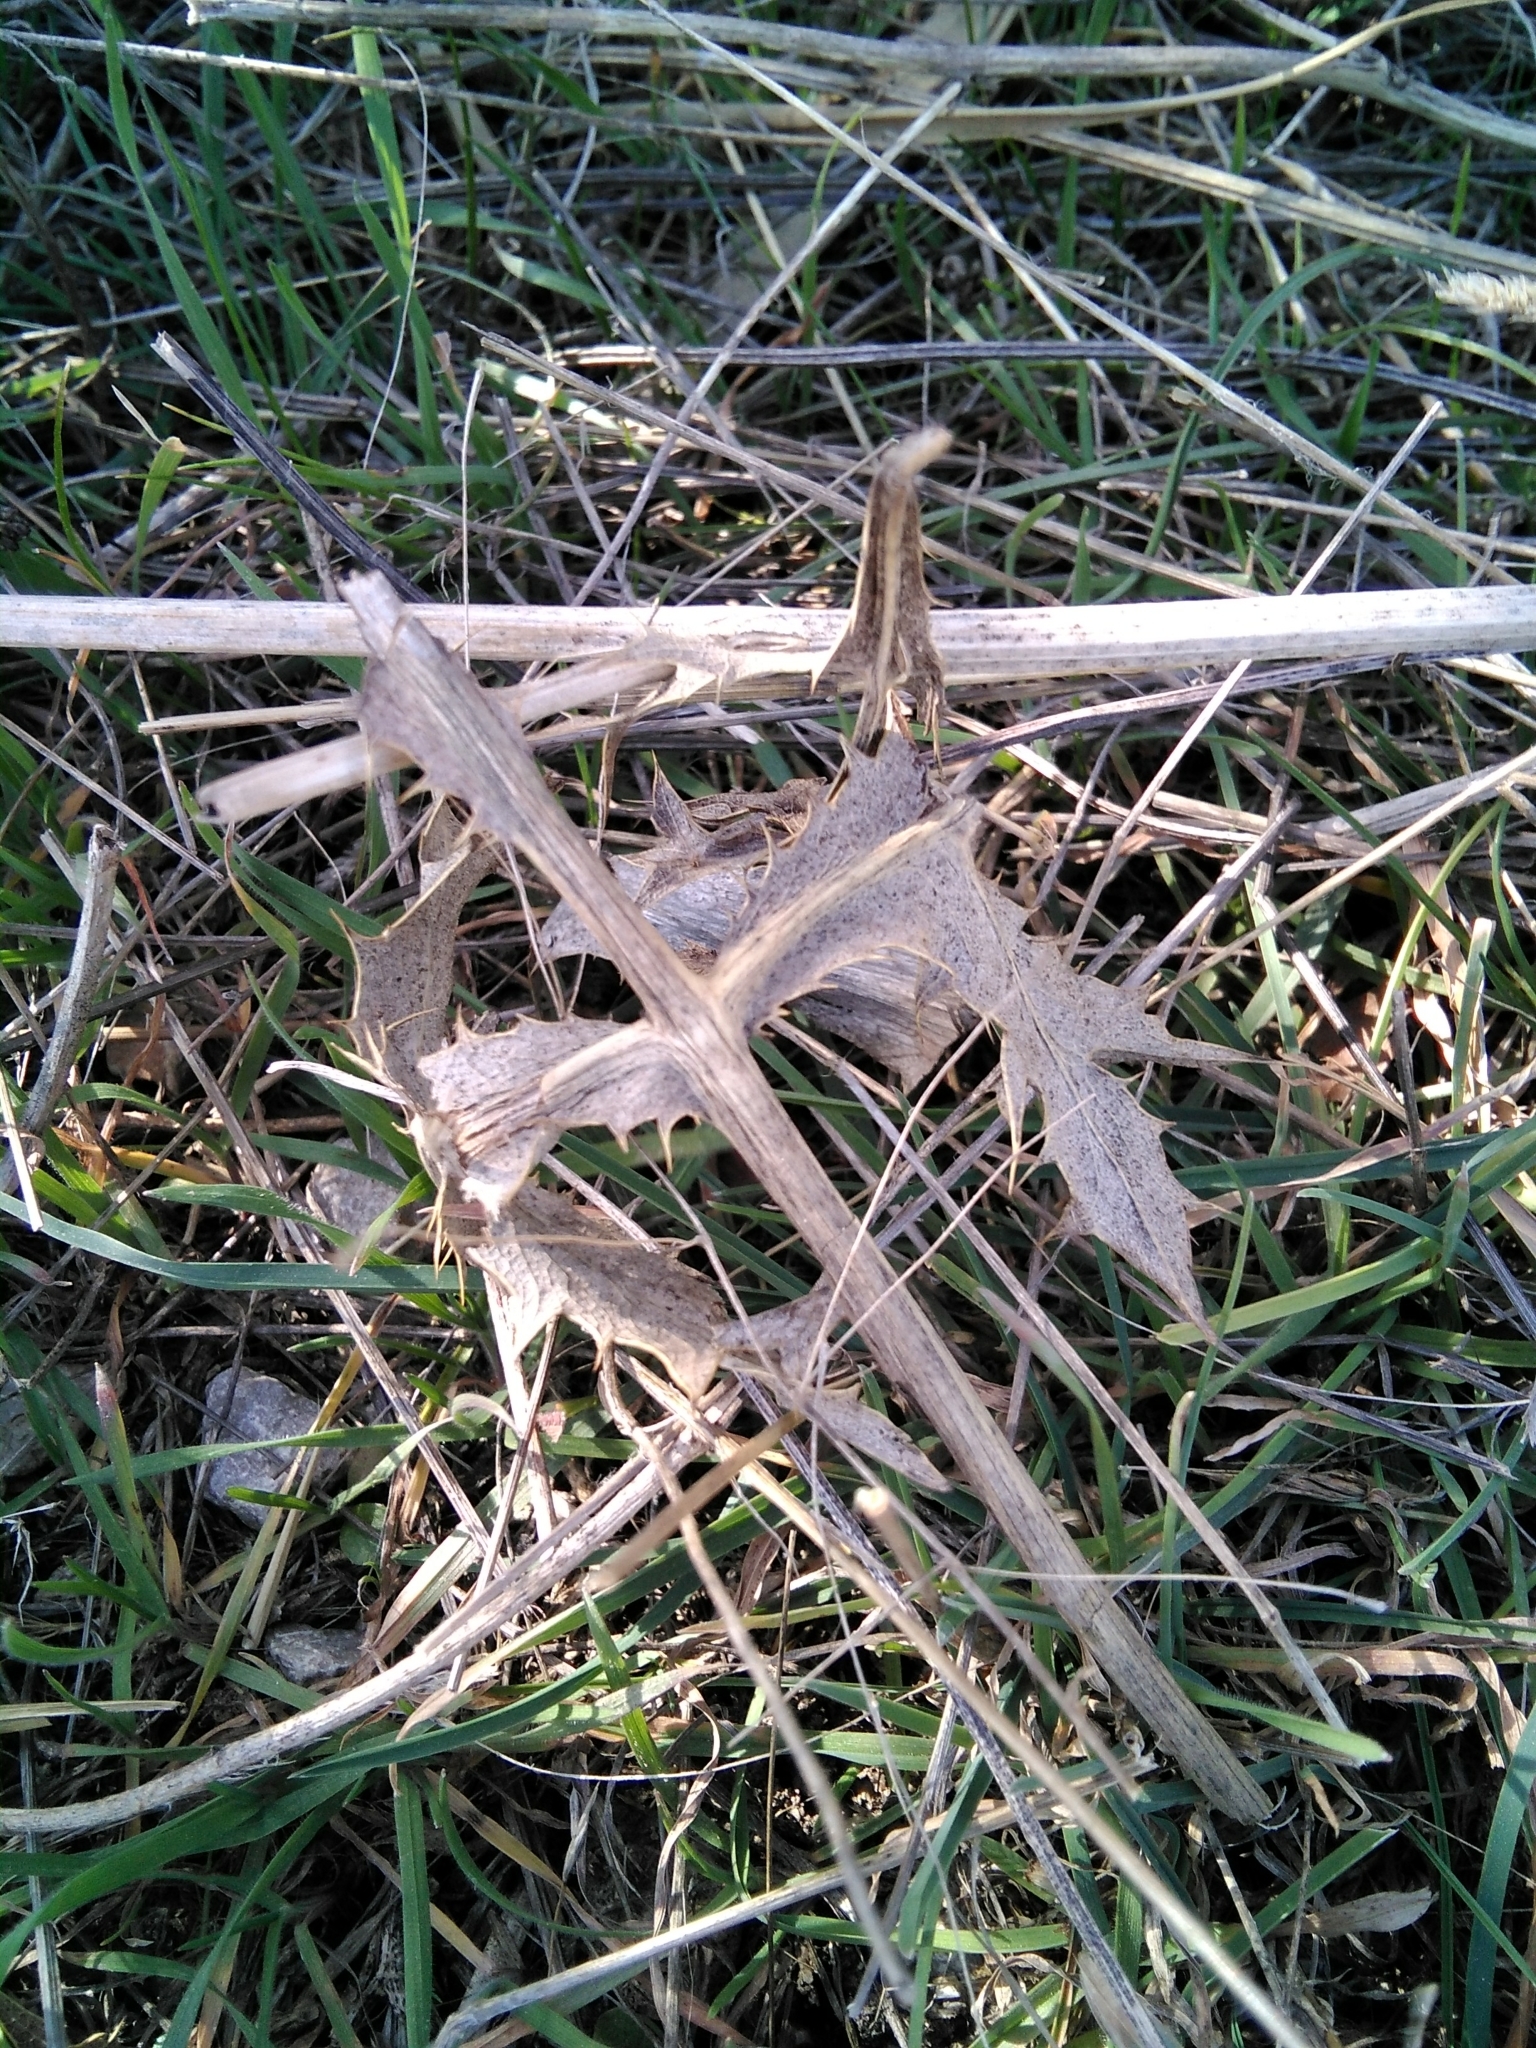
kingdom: Plantae
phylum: Tracheophyta
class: Magnoliopsida
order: Apiales
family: Apiaceae
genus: Eryngium
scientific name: Eryngium campestre
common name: Field eryngo
